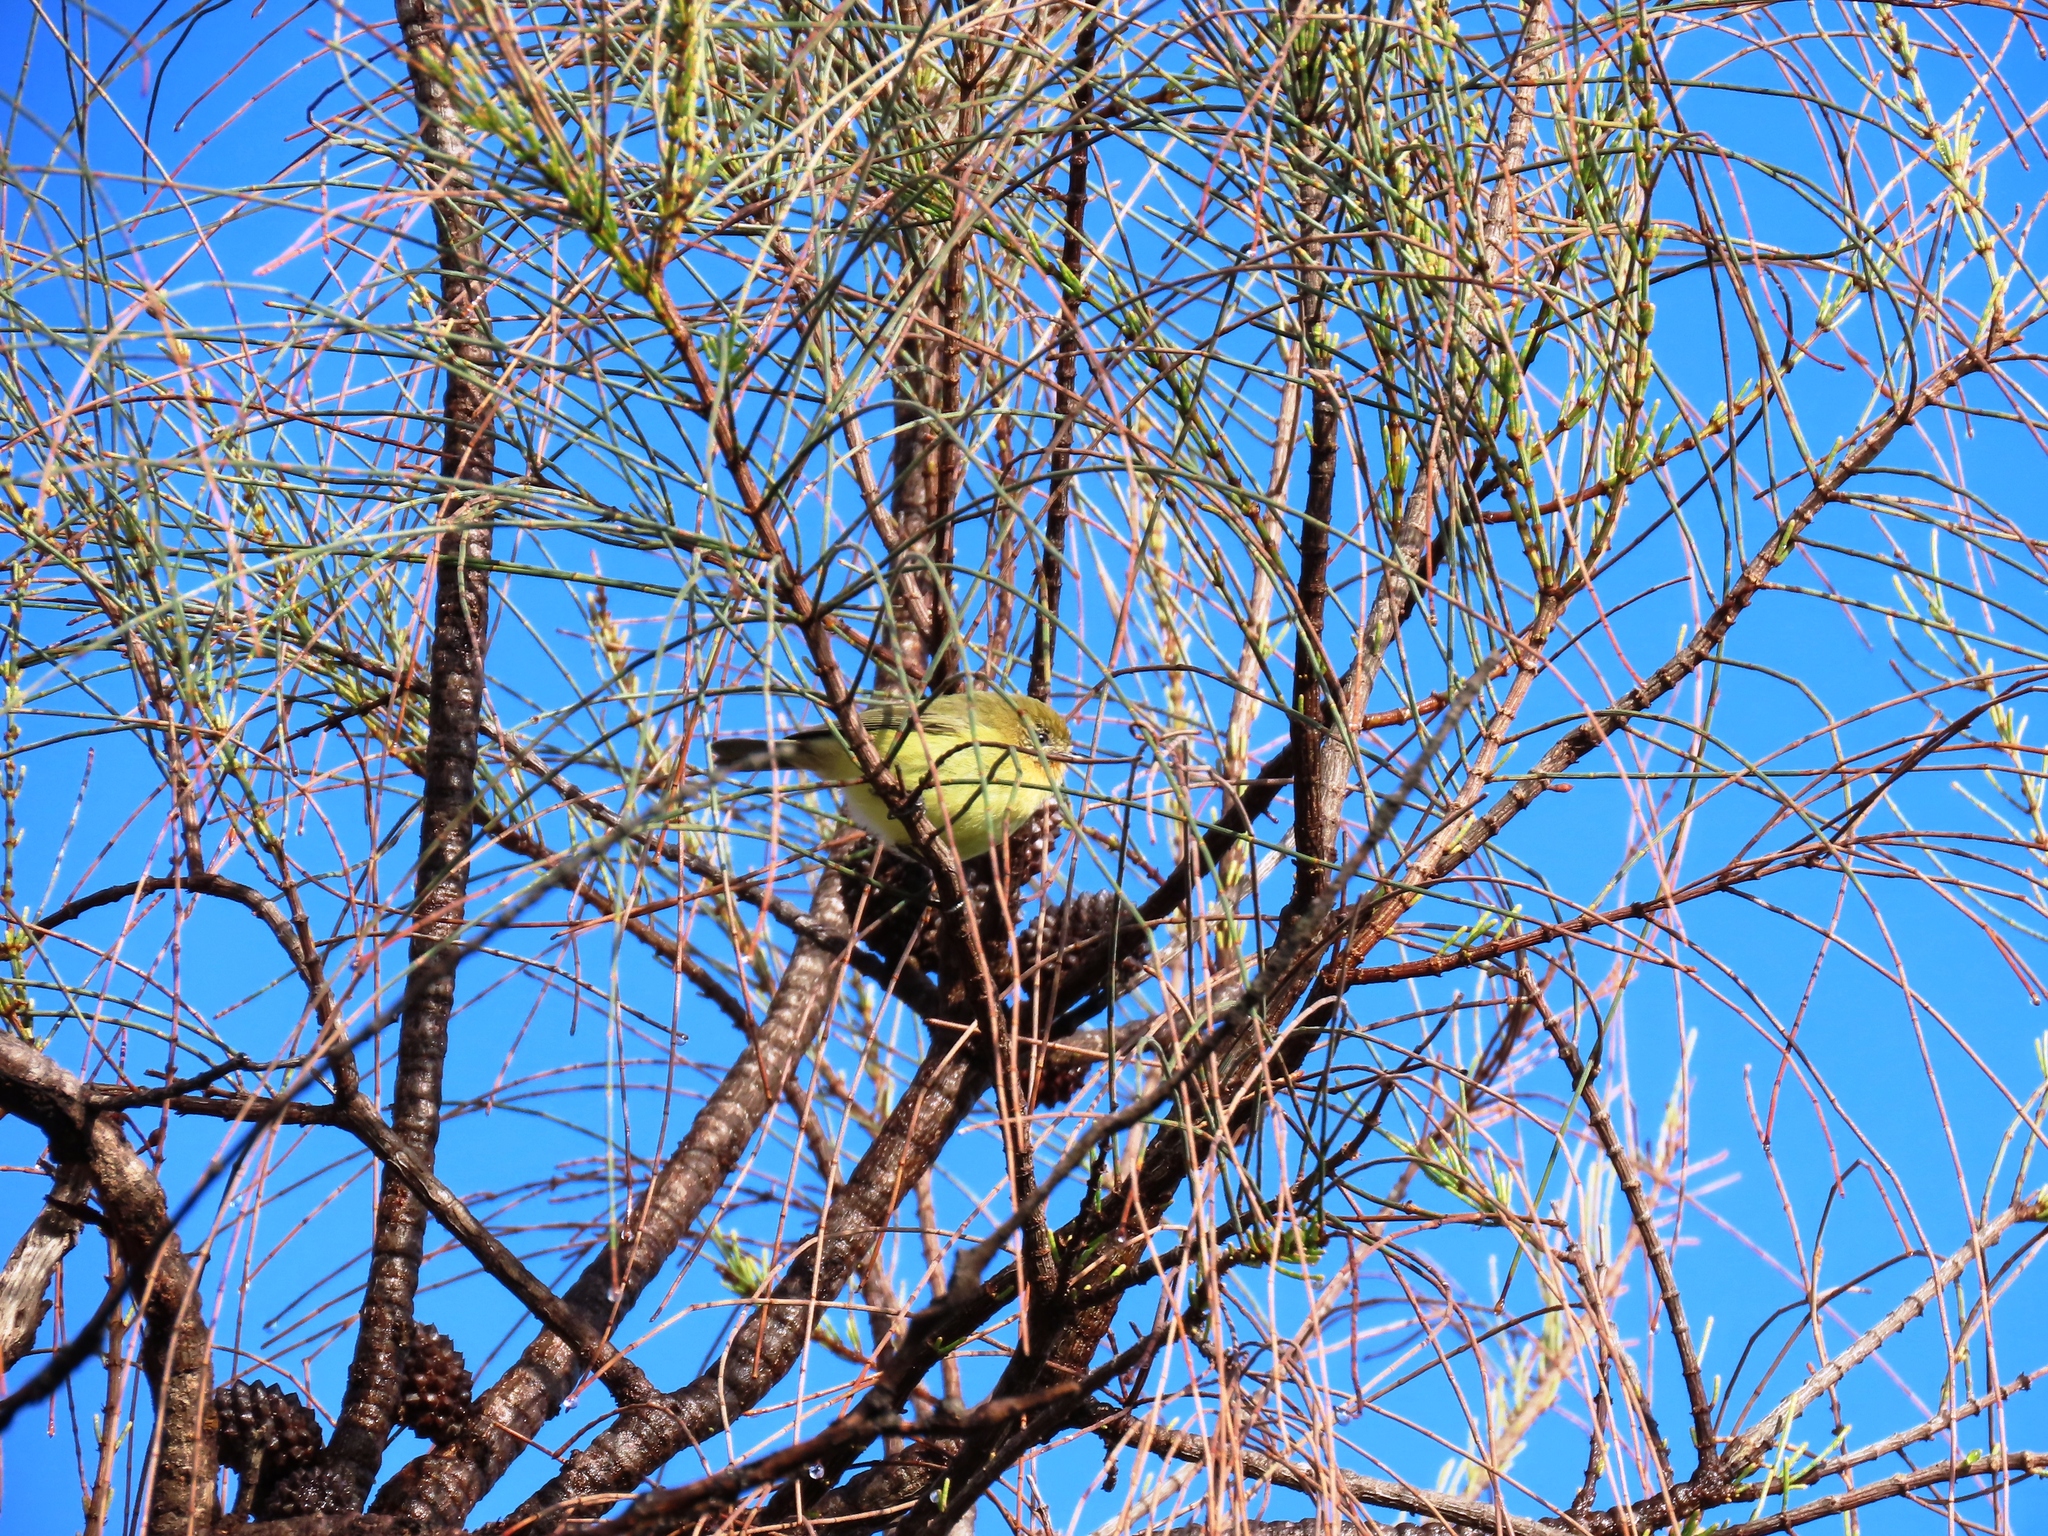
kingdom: Animalia
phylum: Chordata
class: Aves
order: Passeriformes
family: Acanthizidae
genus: Acanthiza
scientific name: Acanthiza nana
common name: Yellow thornbill
